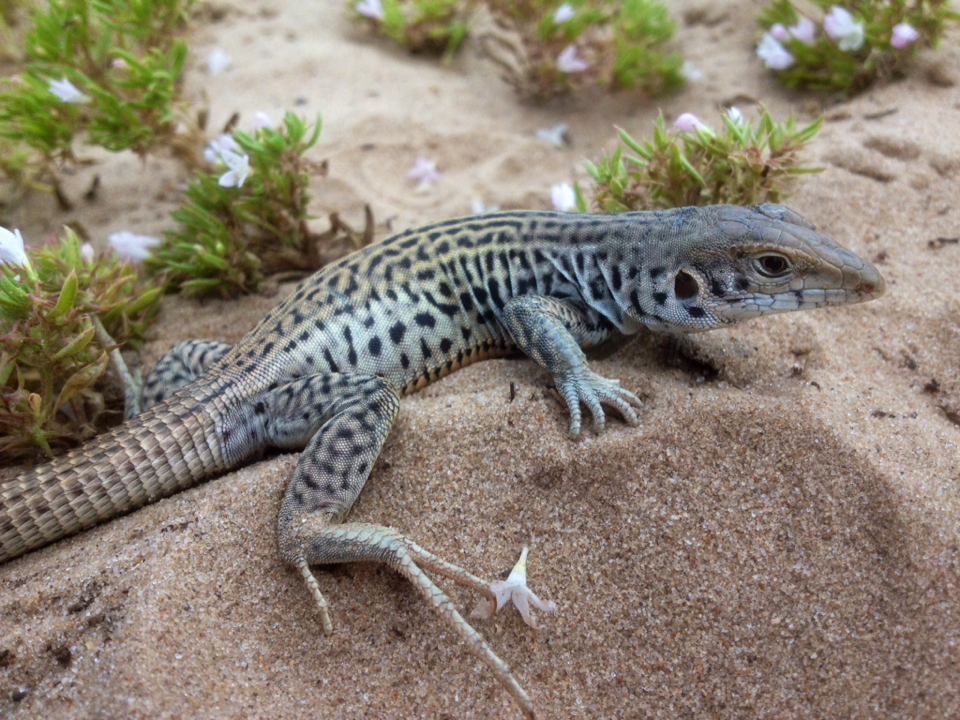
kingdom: Animalia
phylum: Chordata
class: Squamata
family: Teiidae
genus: Aspidoscelis
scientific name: Aspidoscelis marmoratus
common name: Eastern marbled whiptail [reticuloriens]
